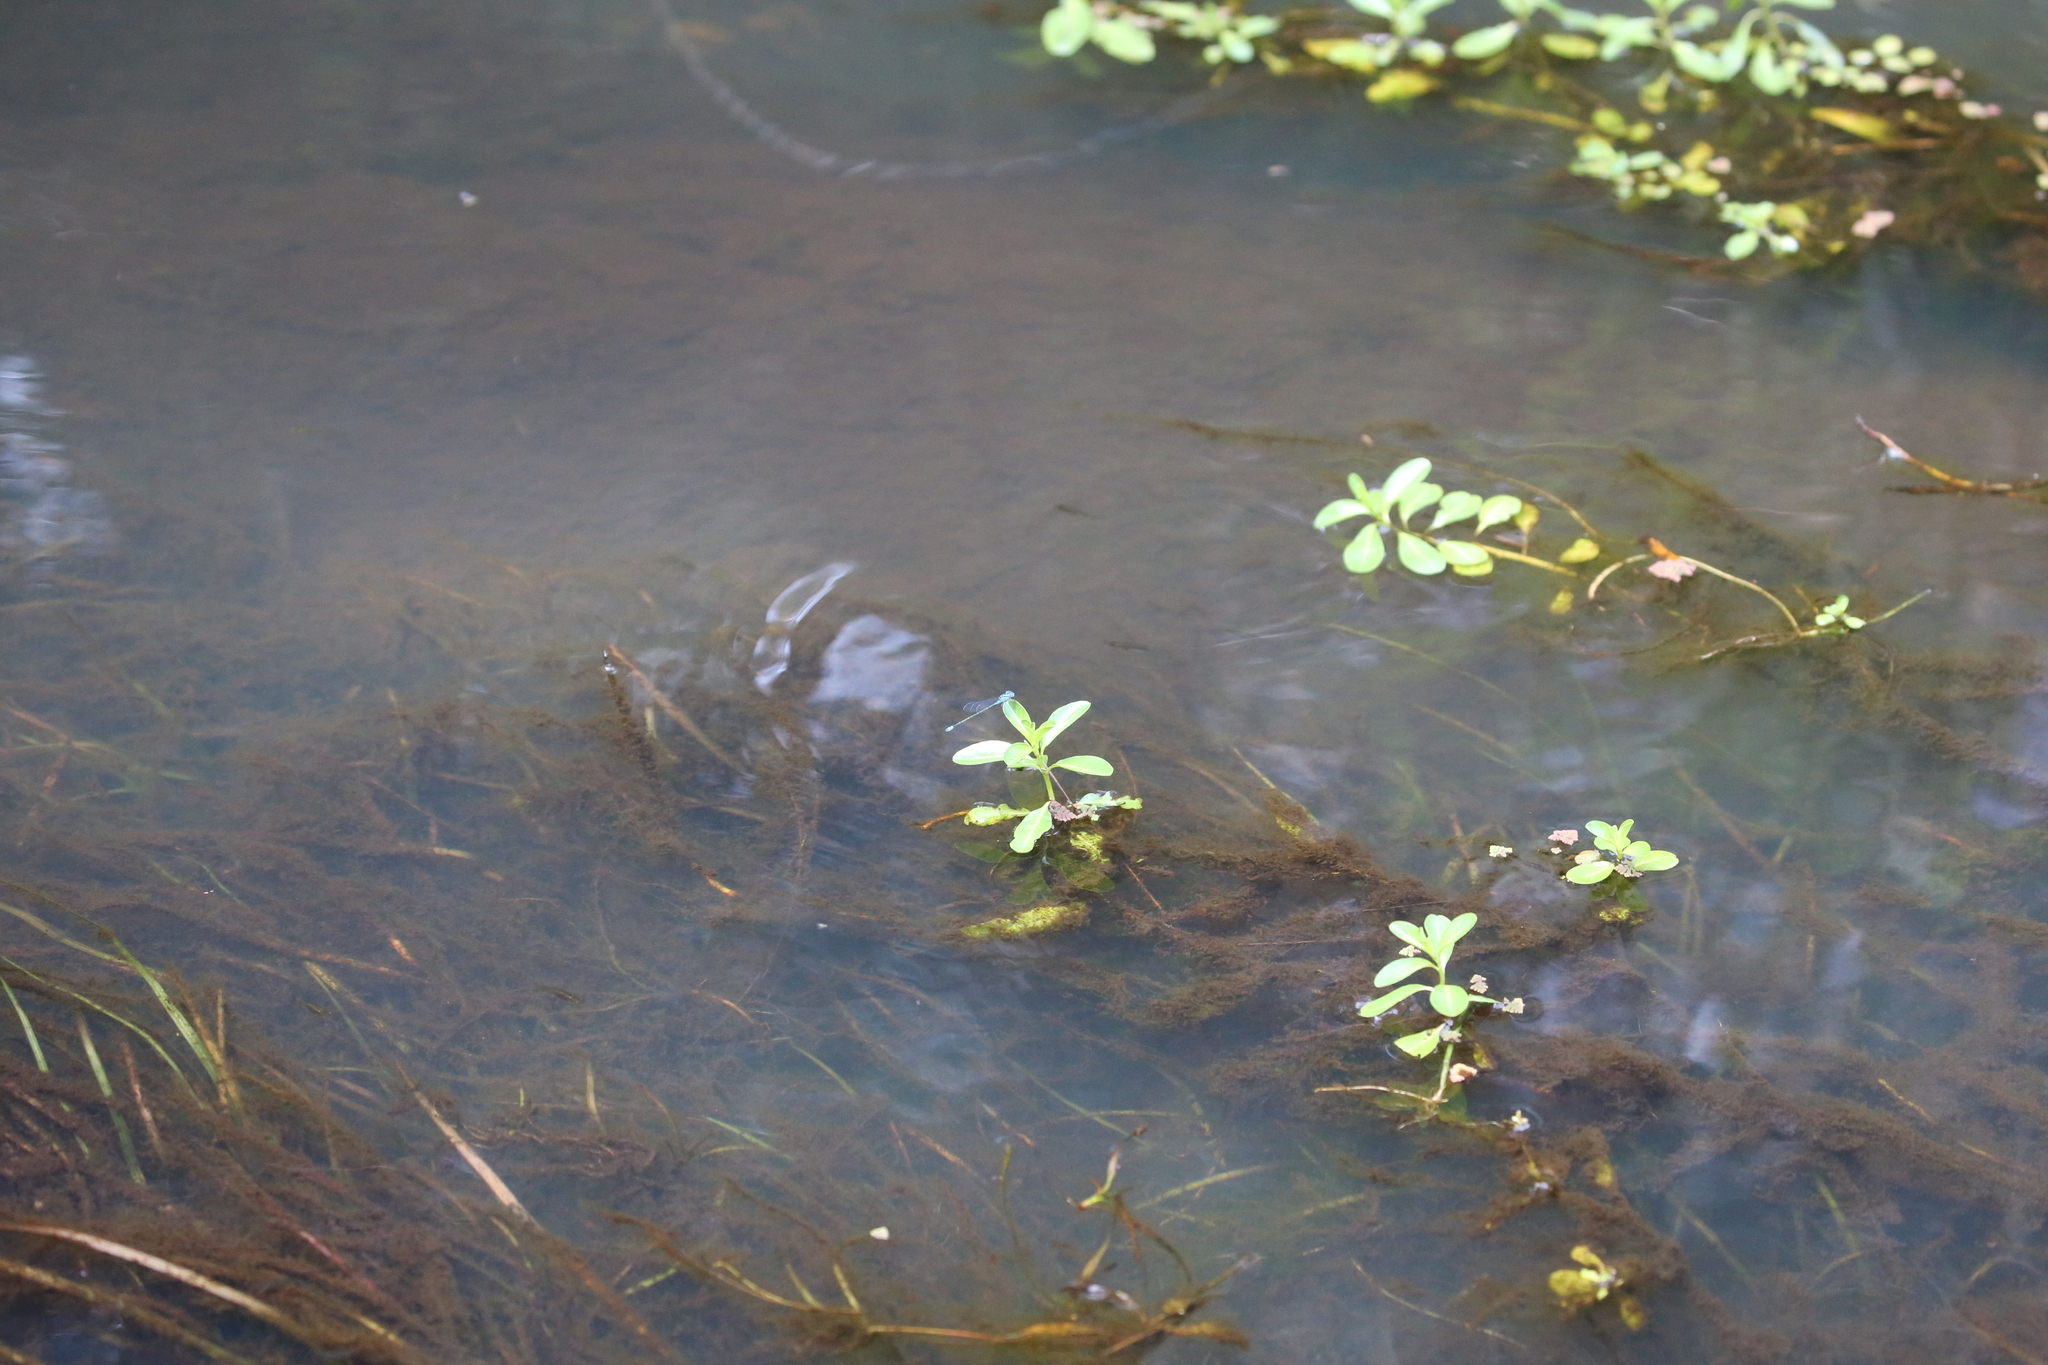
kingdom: Animalia
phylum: Arthropoda
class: Insecta
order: Odonata
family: Coenagrionidae
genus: Pseudagrion
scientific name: Pseudagrion microcephalum
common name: Blue riverdamsel
